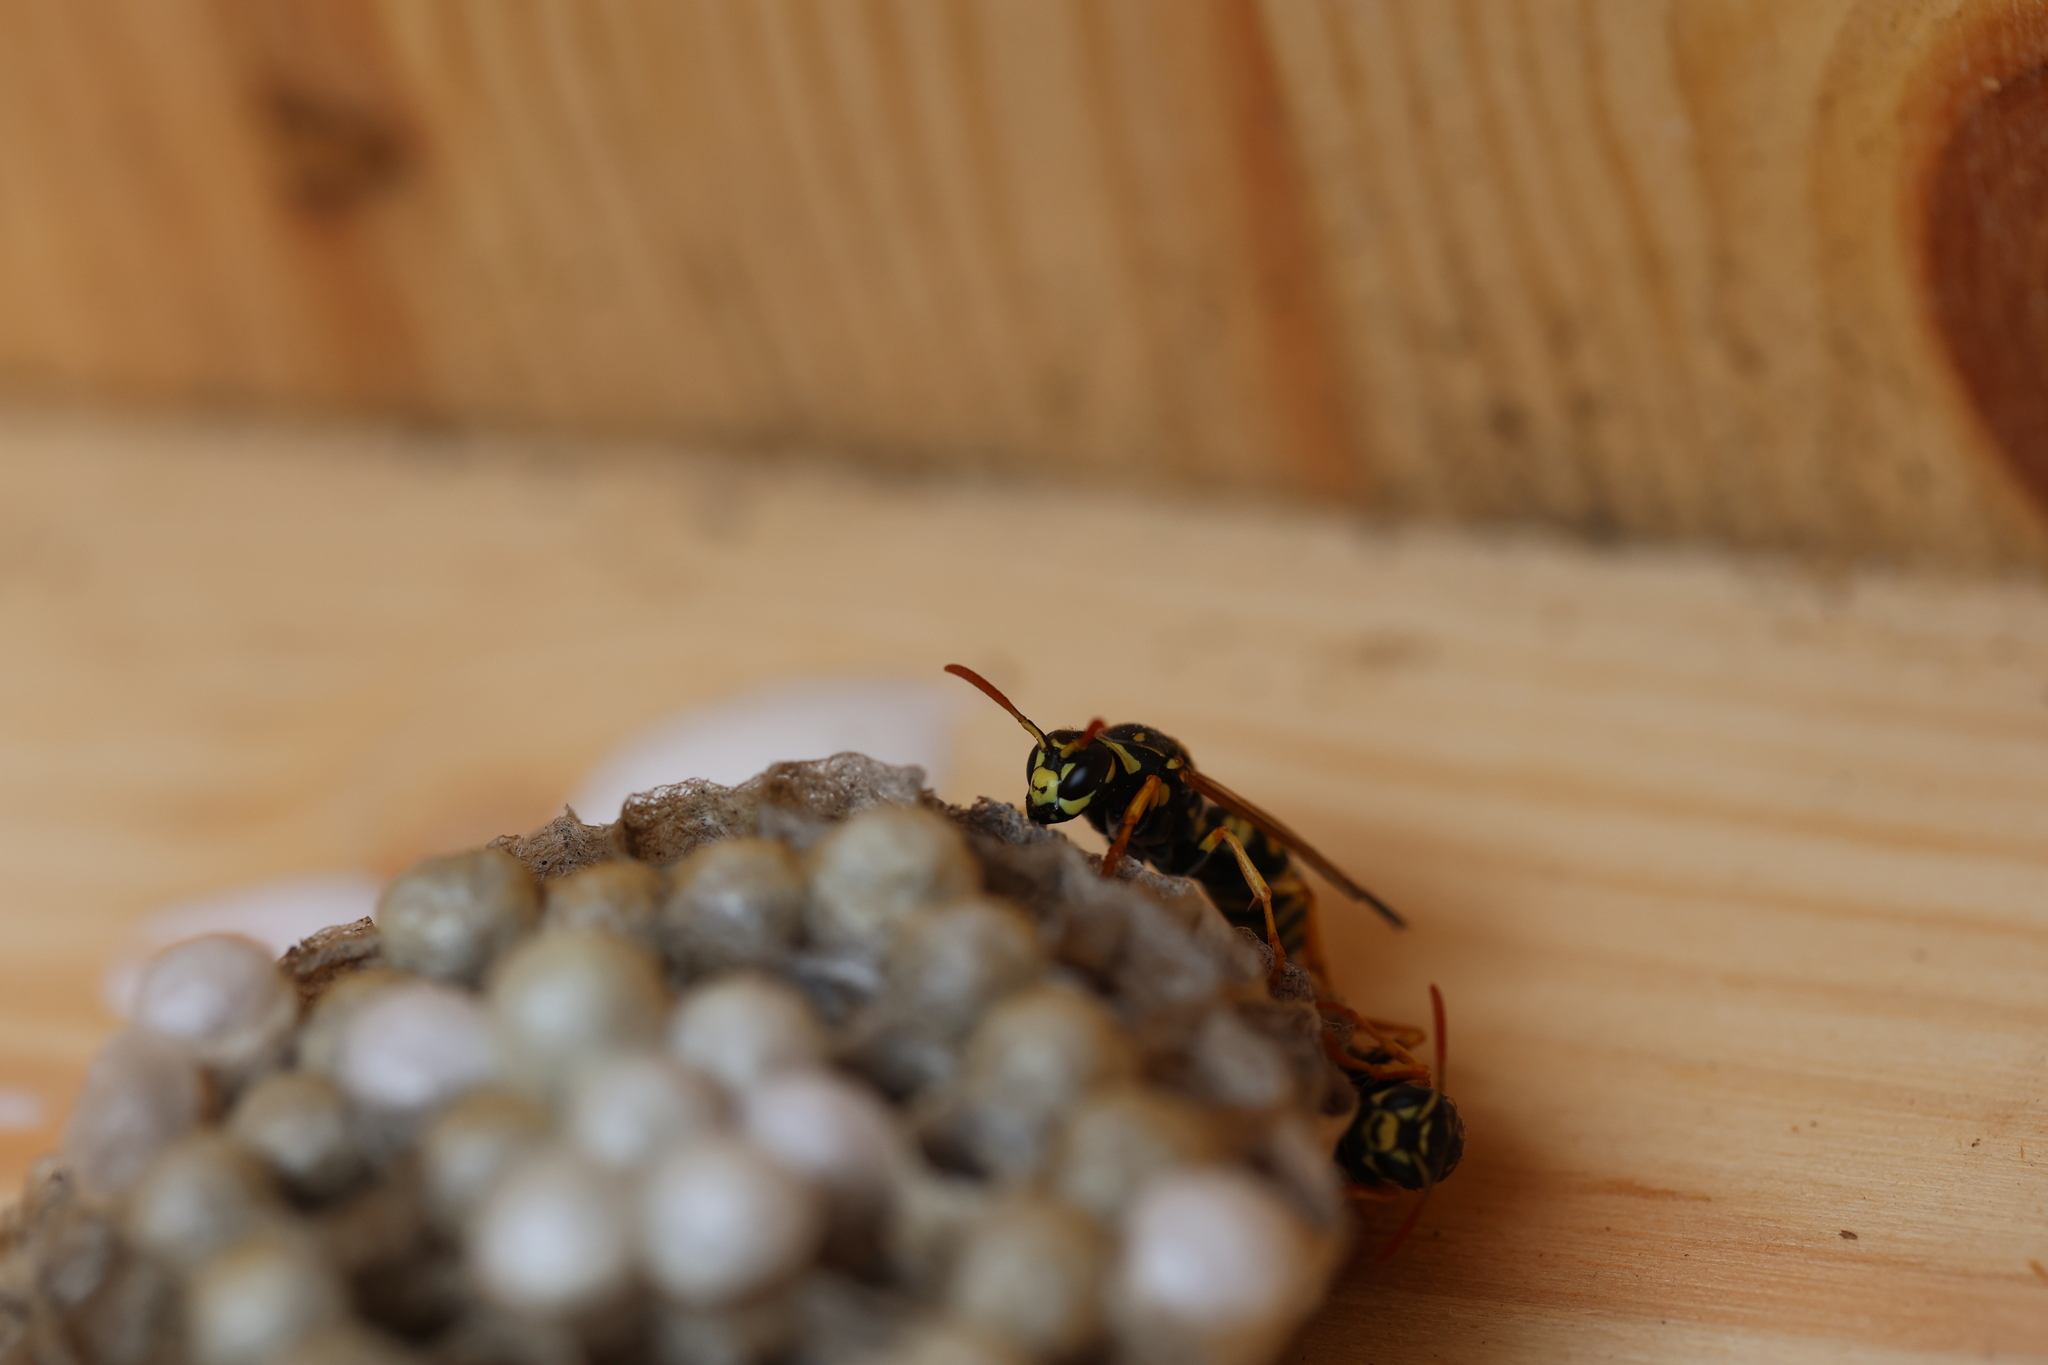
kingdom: Animalia
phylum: Arthropoda
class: Insecta
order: Hymenoptera
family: Eumenidae
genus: Polistes
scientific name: Polistes dominula
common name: Paper wasp
